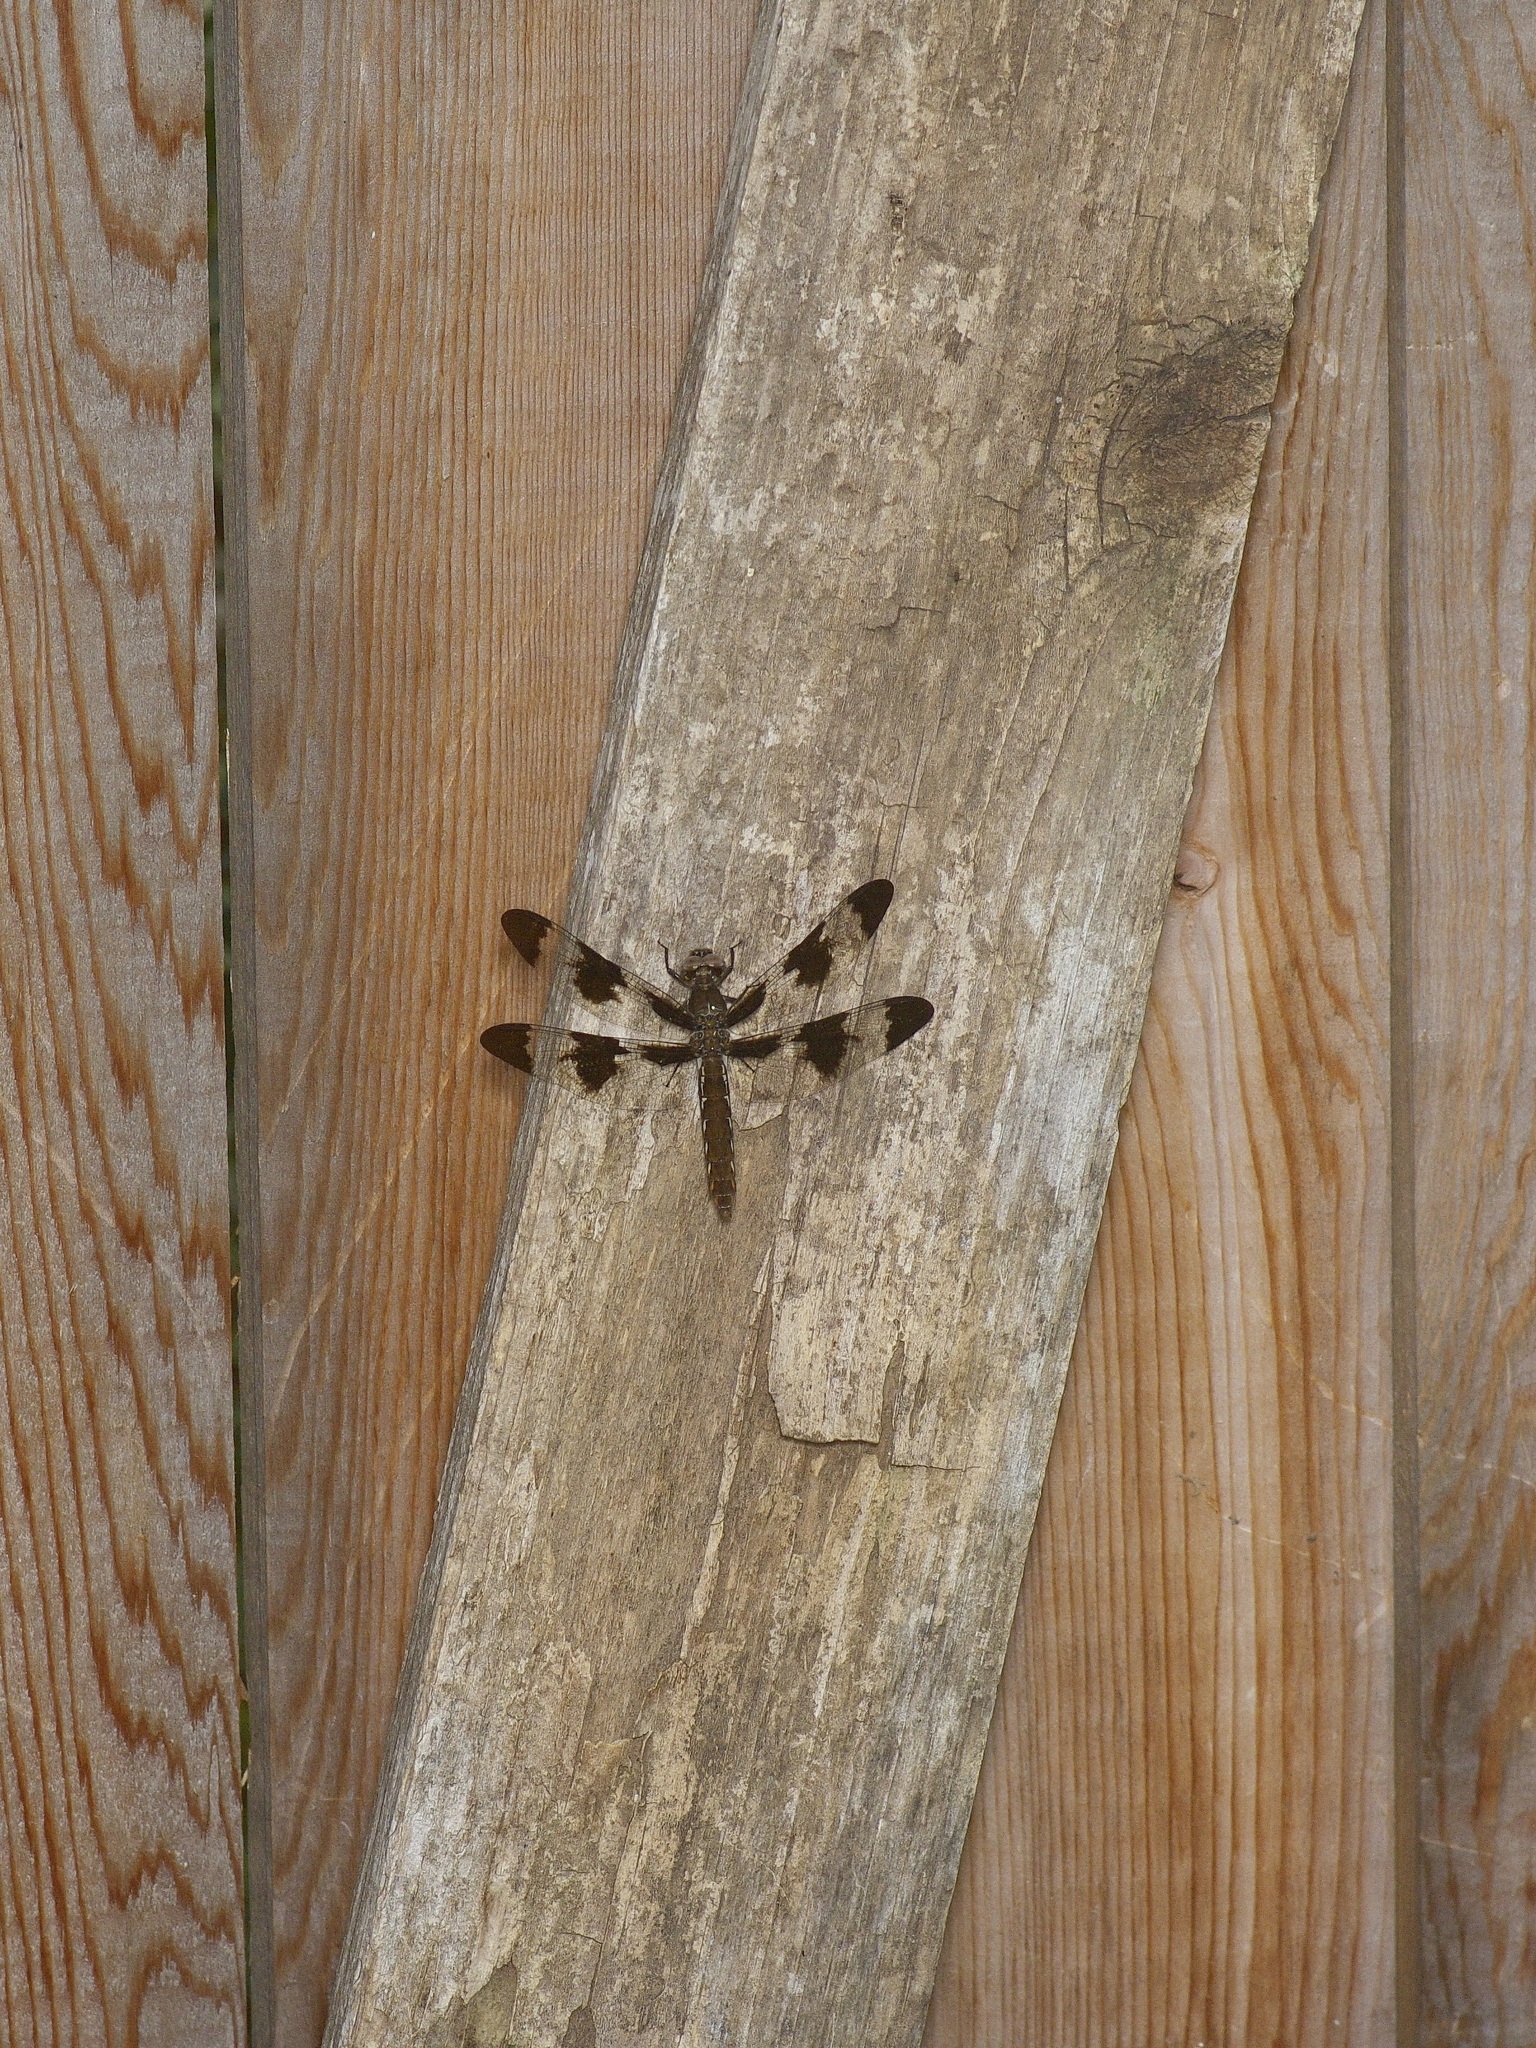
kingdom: Animalia
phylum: Arthropoda
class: Insecta
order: Odonata
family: Libellulidae
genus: Plathemis
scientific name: Plathemis lydia
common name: Common whitetail
